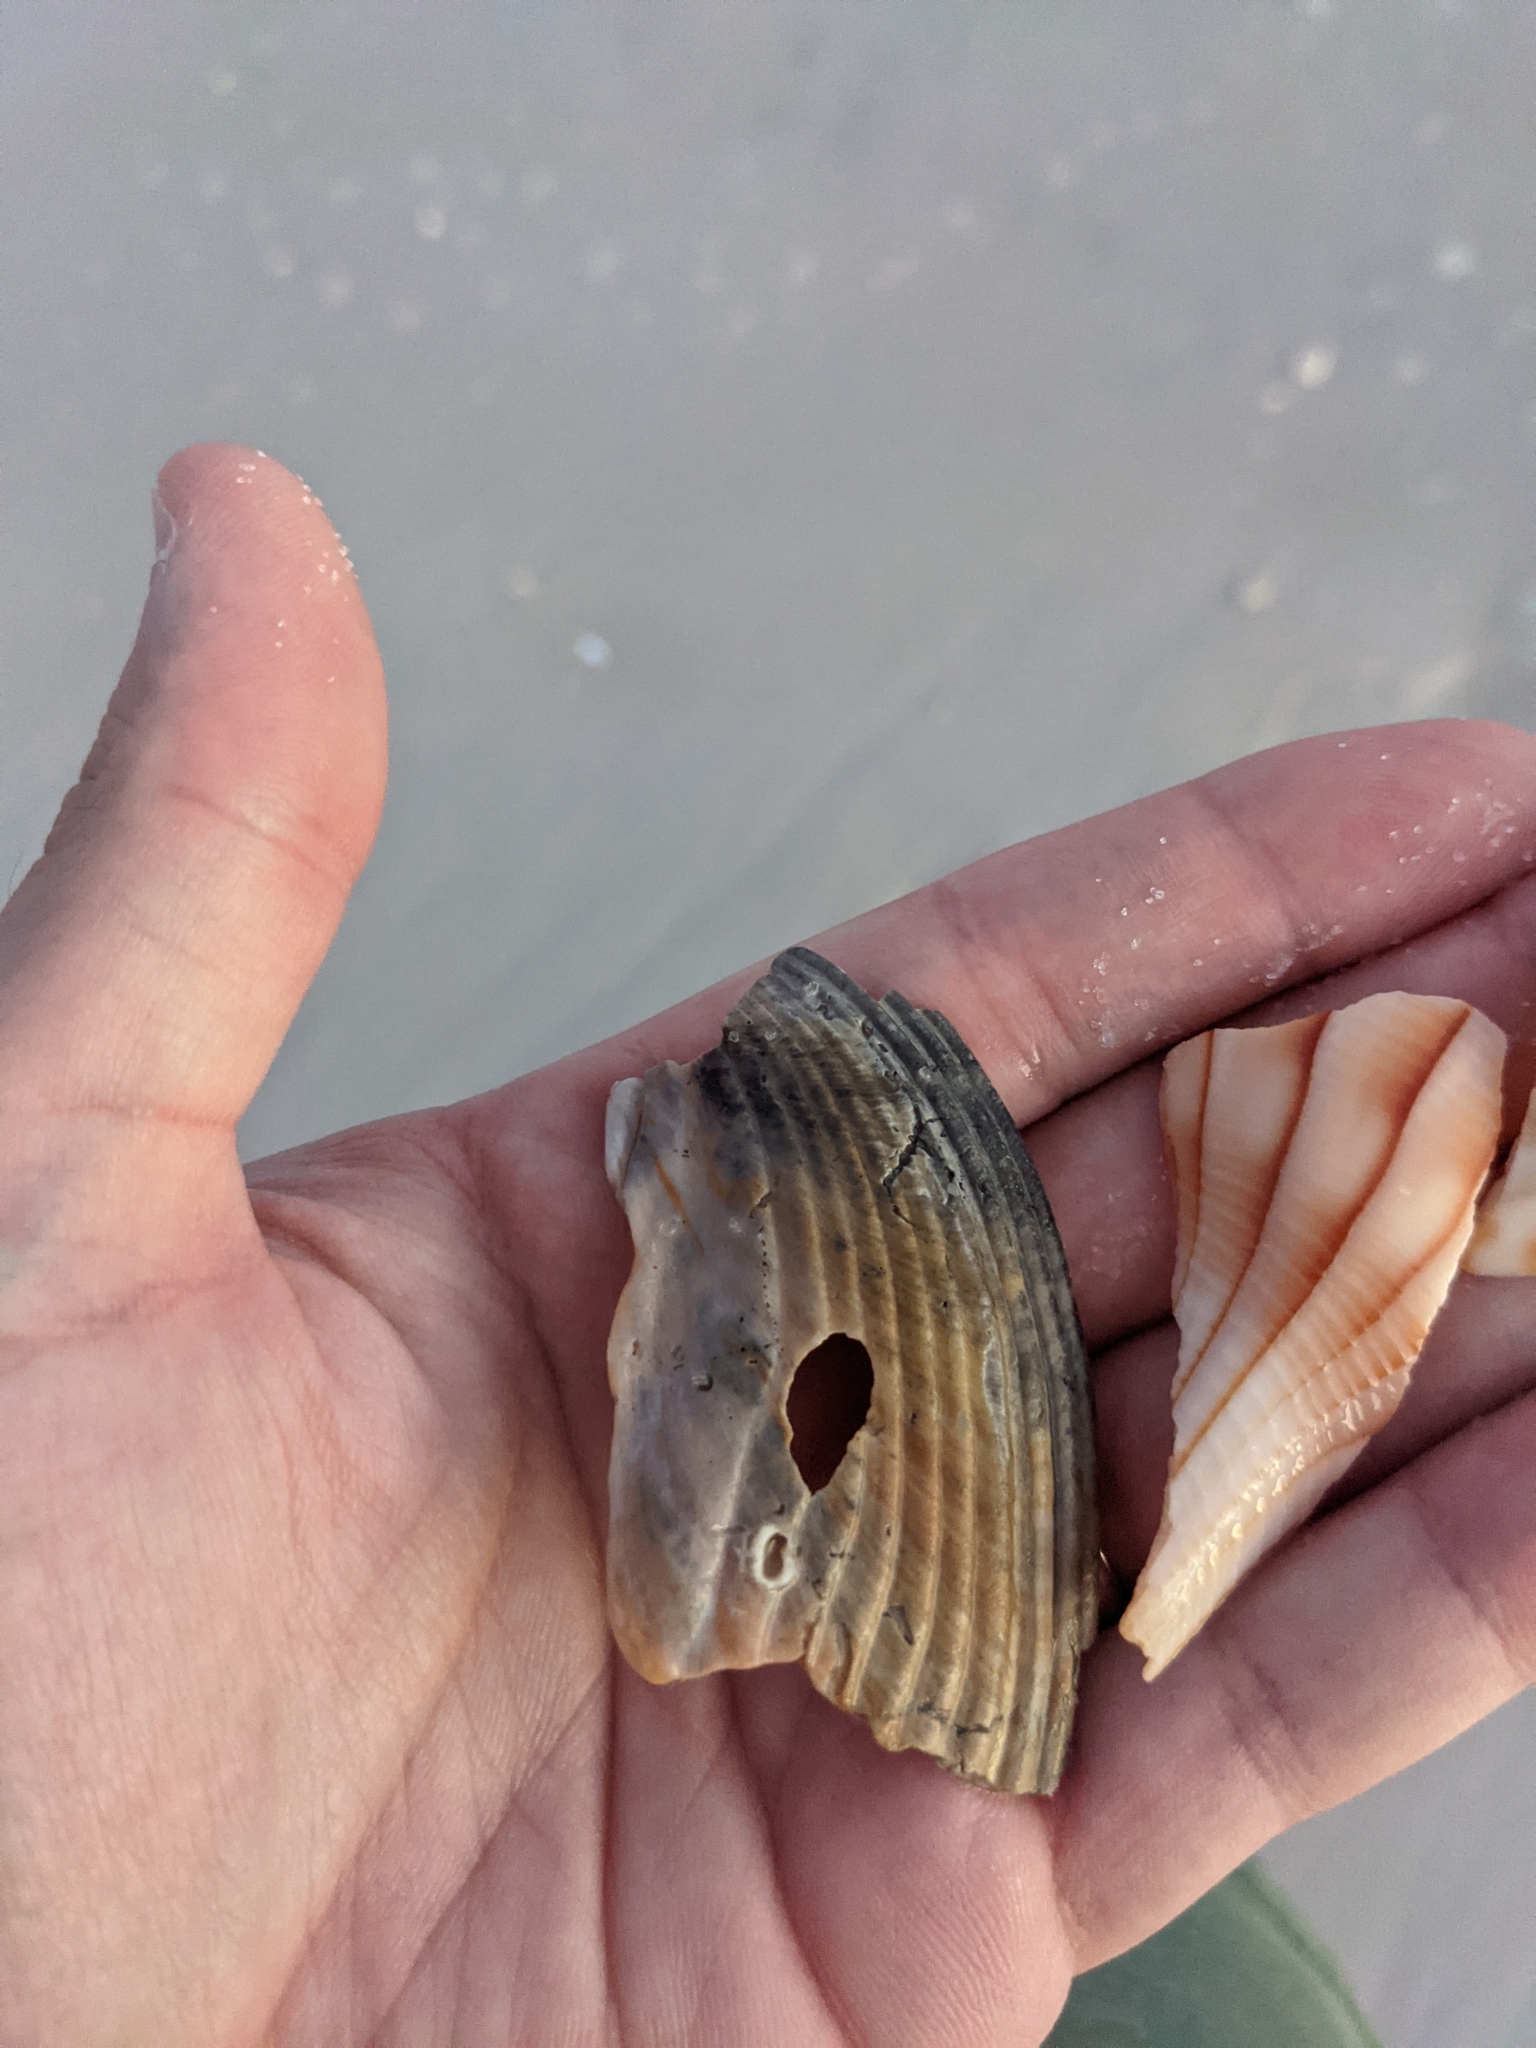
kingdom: Animalia
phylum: Mollusca
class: Bivalvia
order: Cardiida
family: Cardiidae
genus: Dinocardium
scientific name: Dinocardium robustum
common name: Atlantic giant cockle
